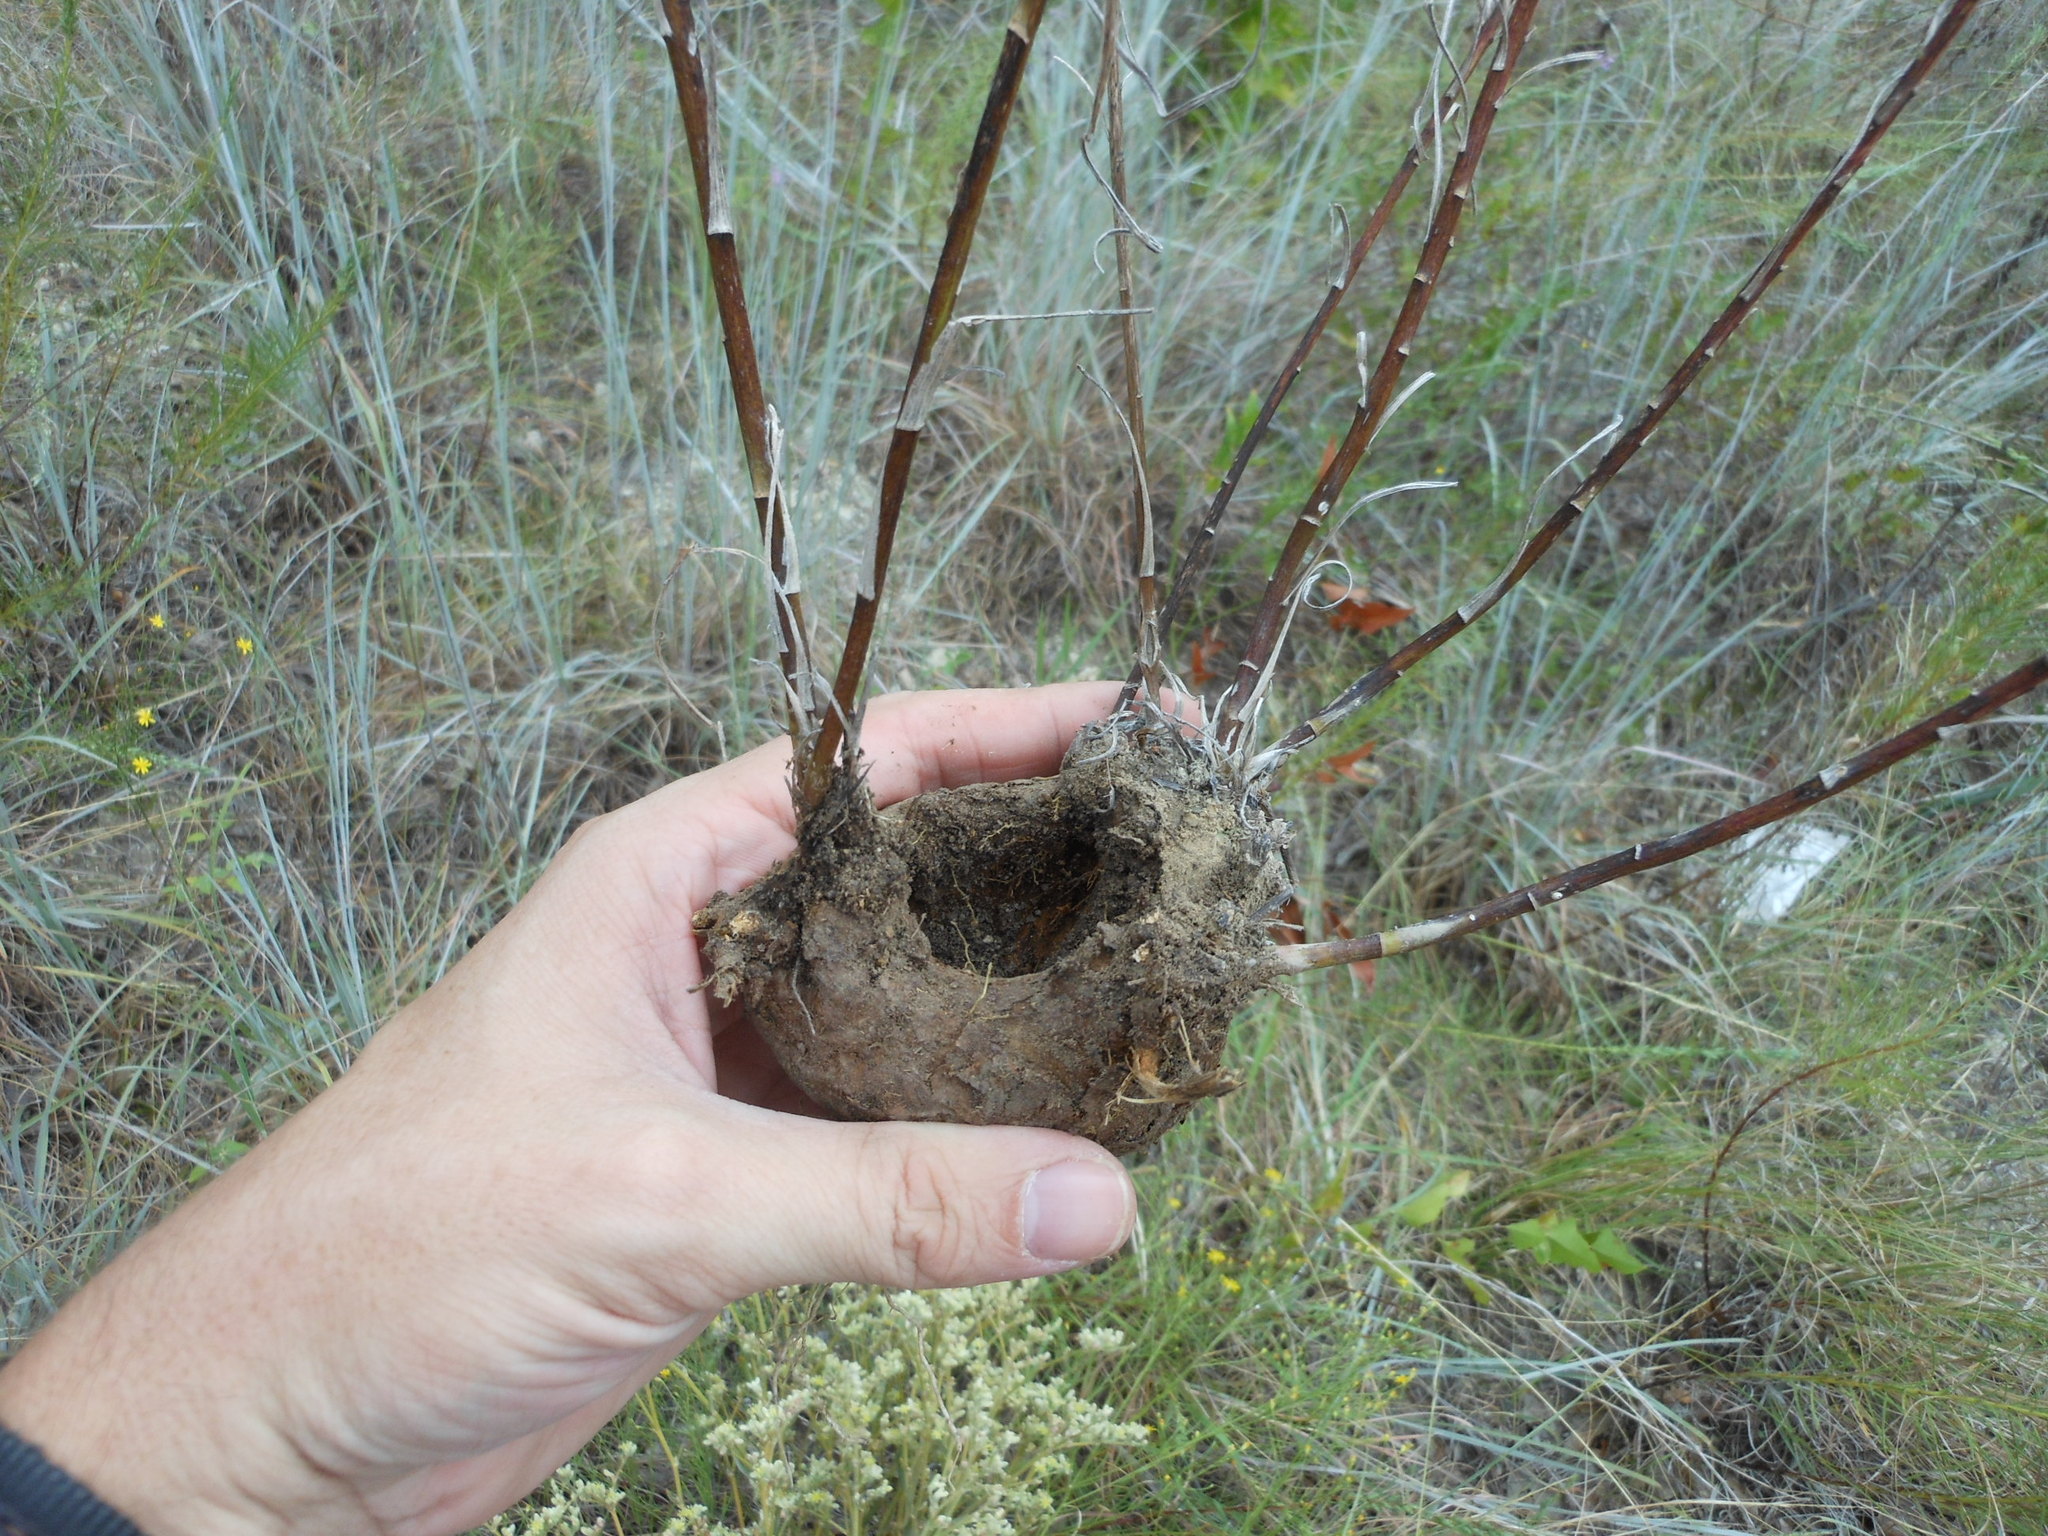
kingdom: Plantae
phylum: Tracheophyta
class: Magnoliopsida
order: Asterales
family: Asteraceae
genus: Liatris
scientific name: Liatris punctata
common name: Dotted gayfeather
